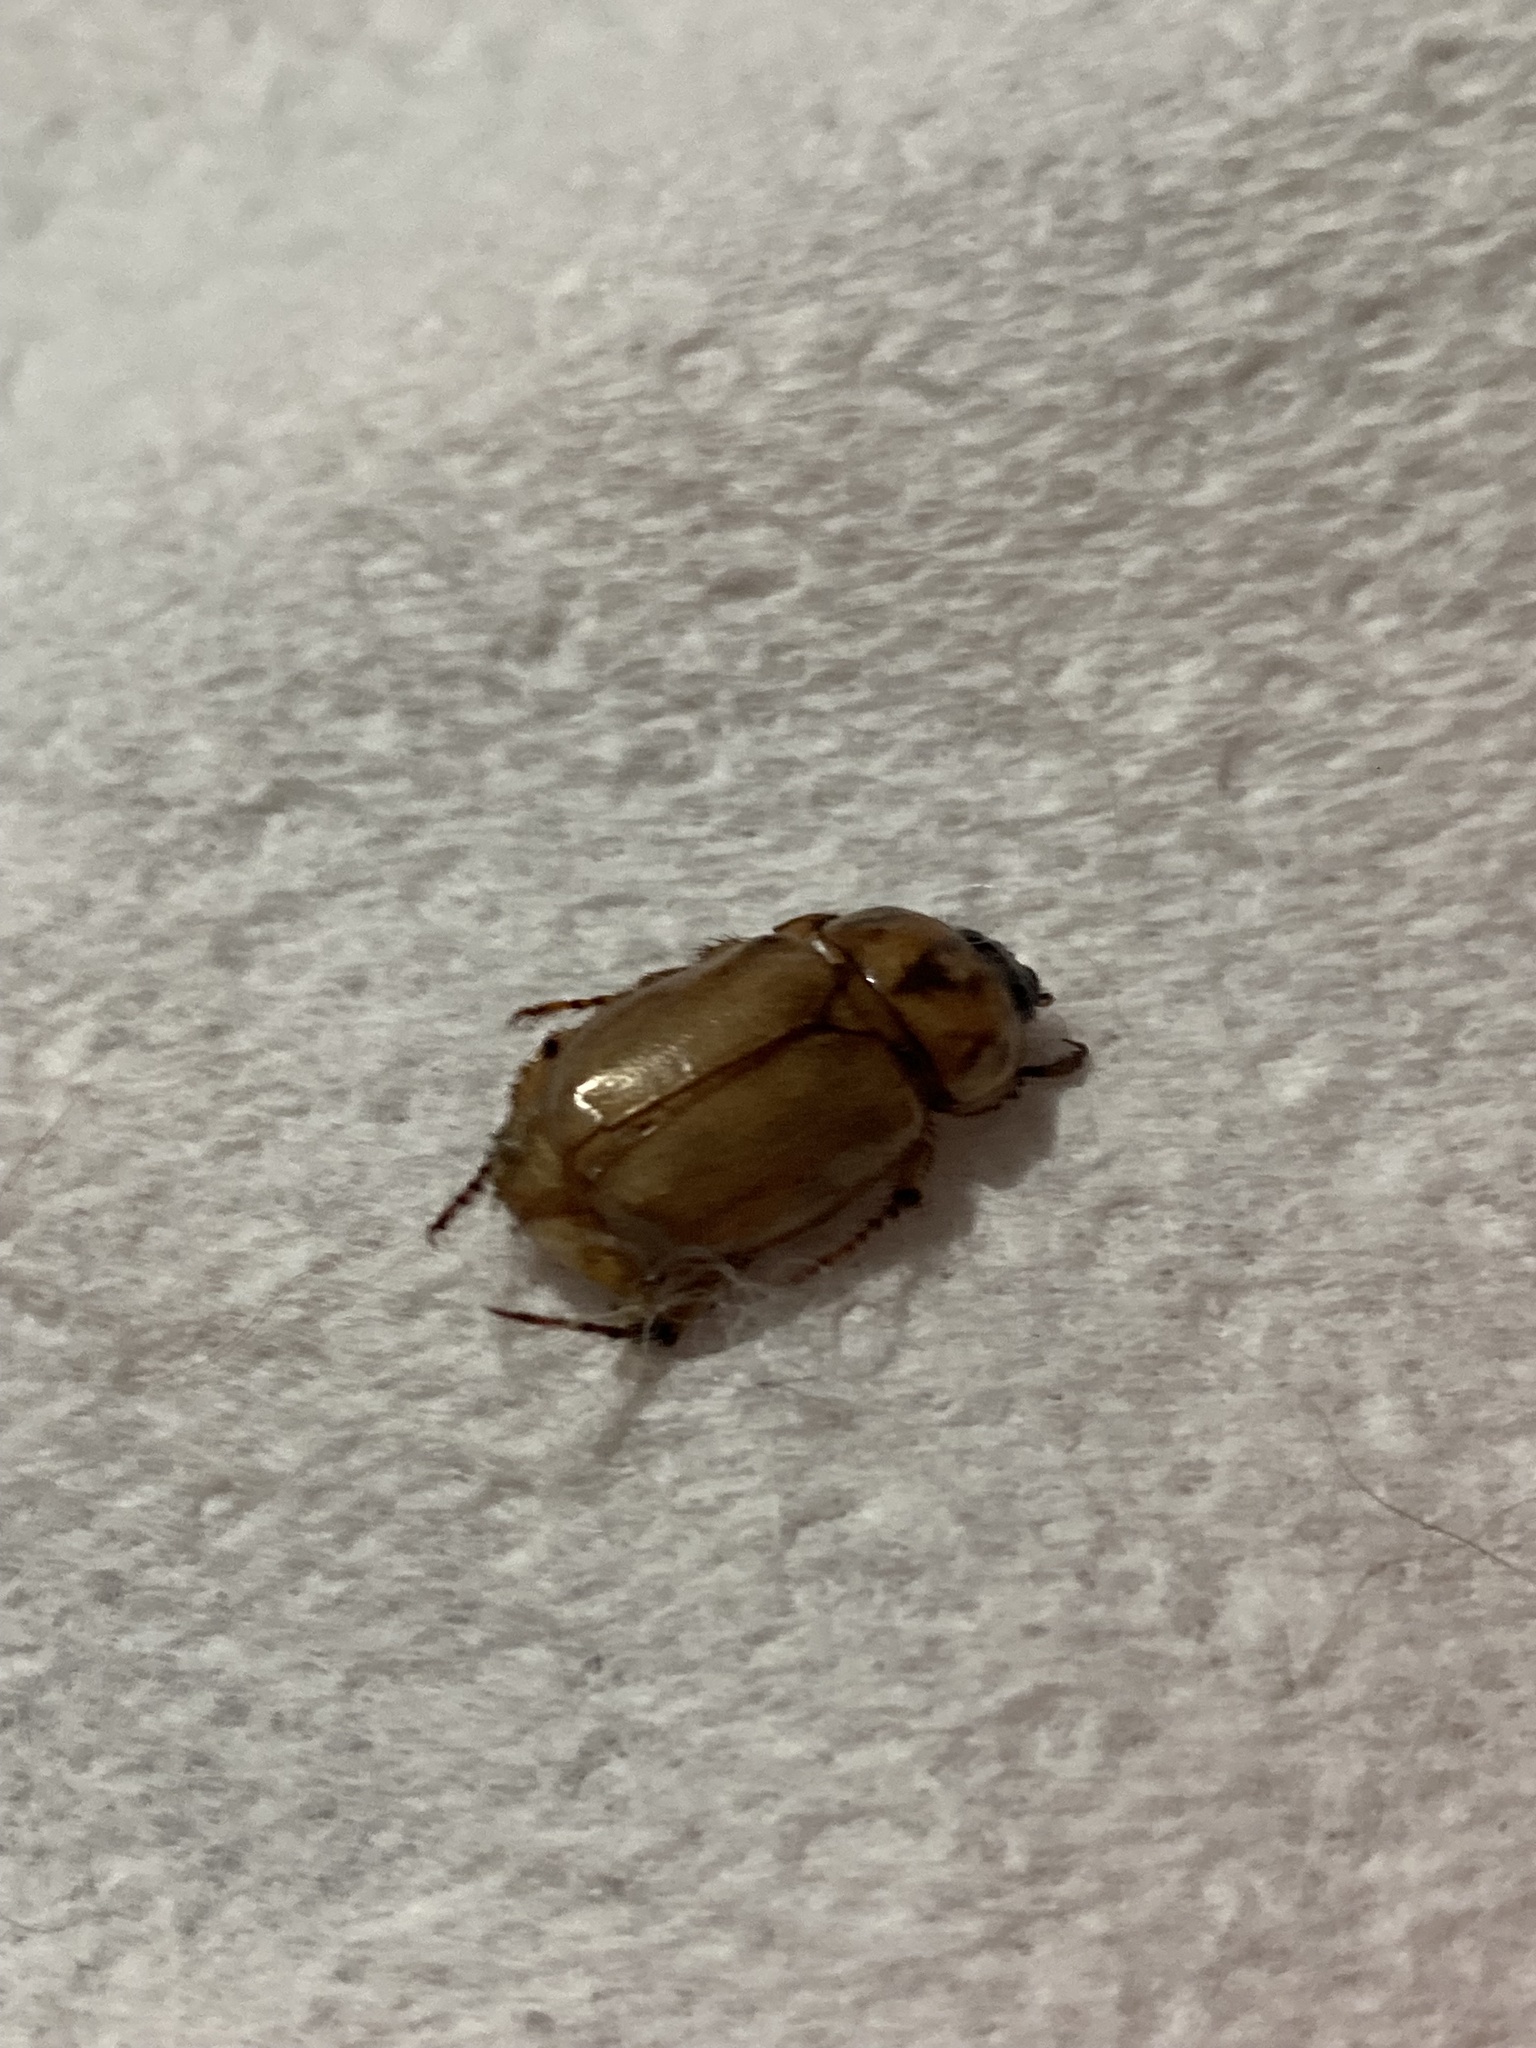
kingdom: Animalia
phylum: Arthropoda
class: Insecta
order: Coleoptera
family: Scarabaeidae
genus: Cyclocephala
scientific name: Cyclocephala signaticollis
